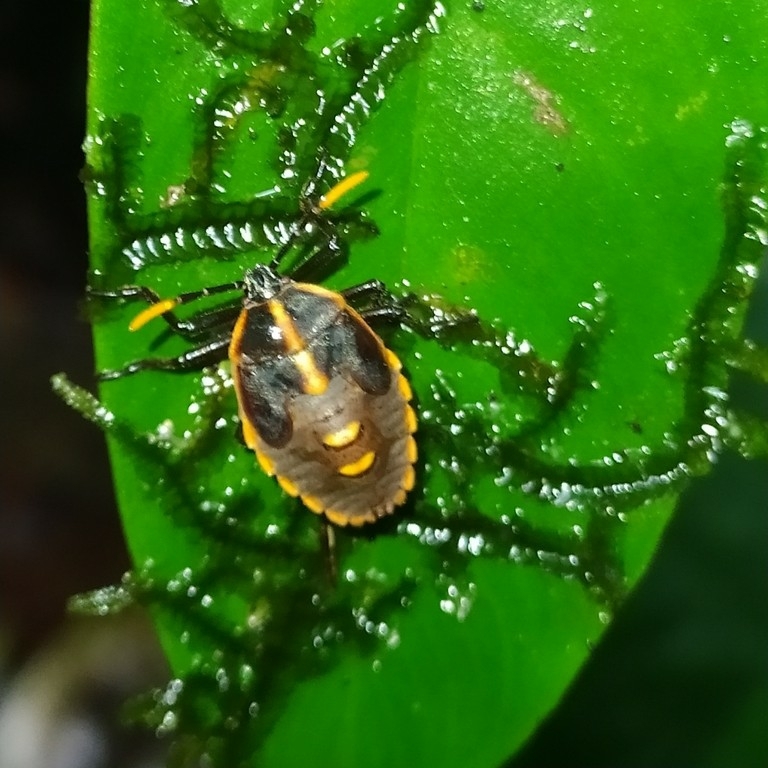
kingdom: Animalia
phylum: Arthropoda
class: Insecta
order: Hemiptera
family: Dinidoridae
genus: Dinidor
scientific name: Dinidor mactans
